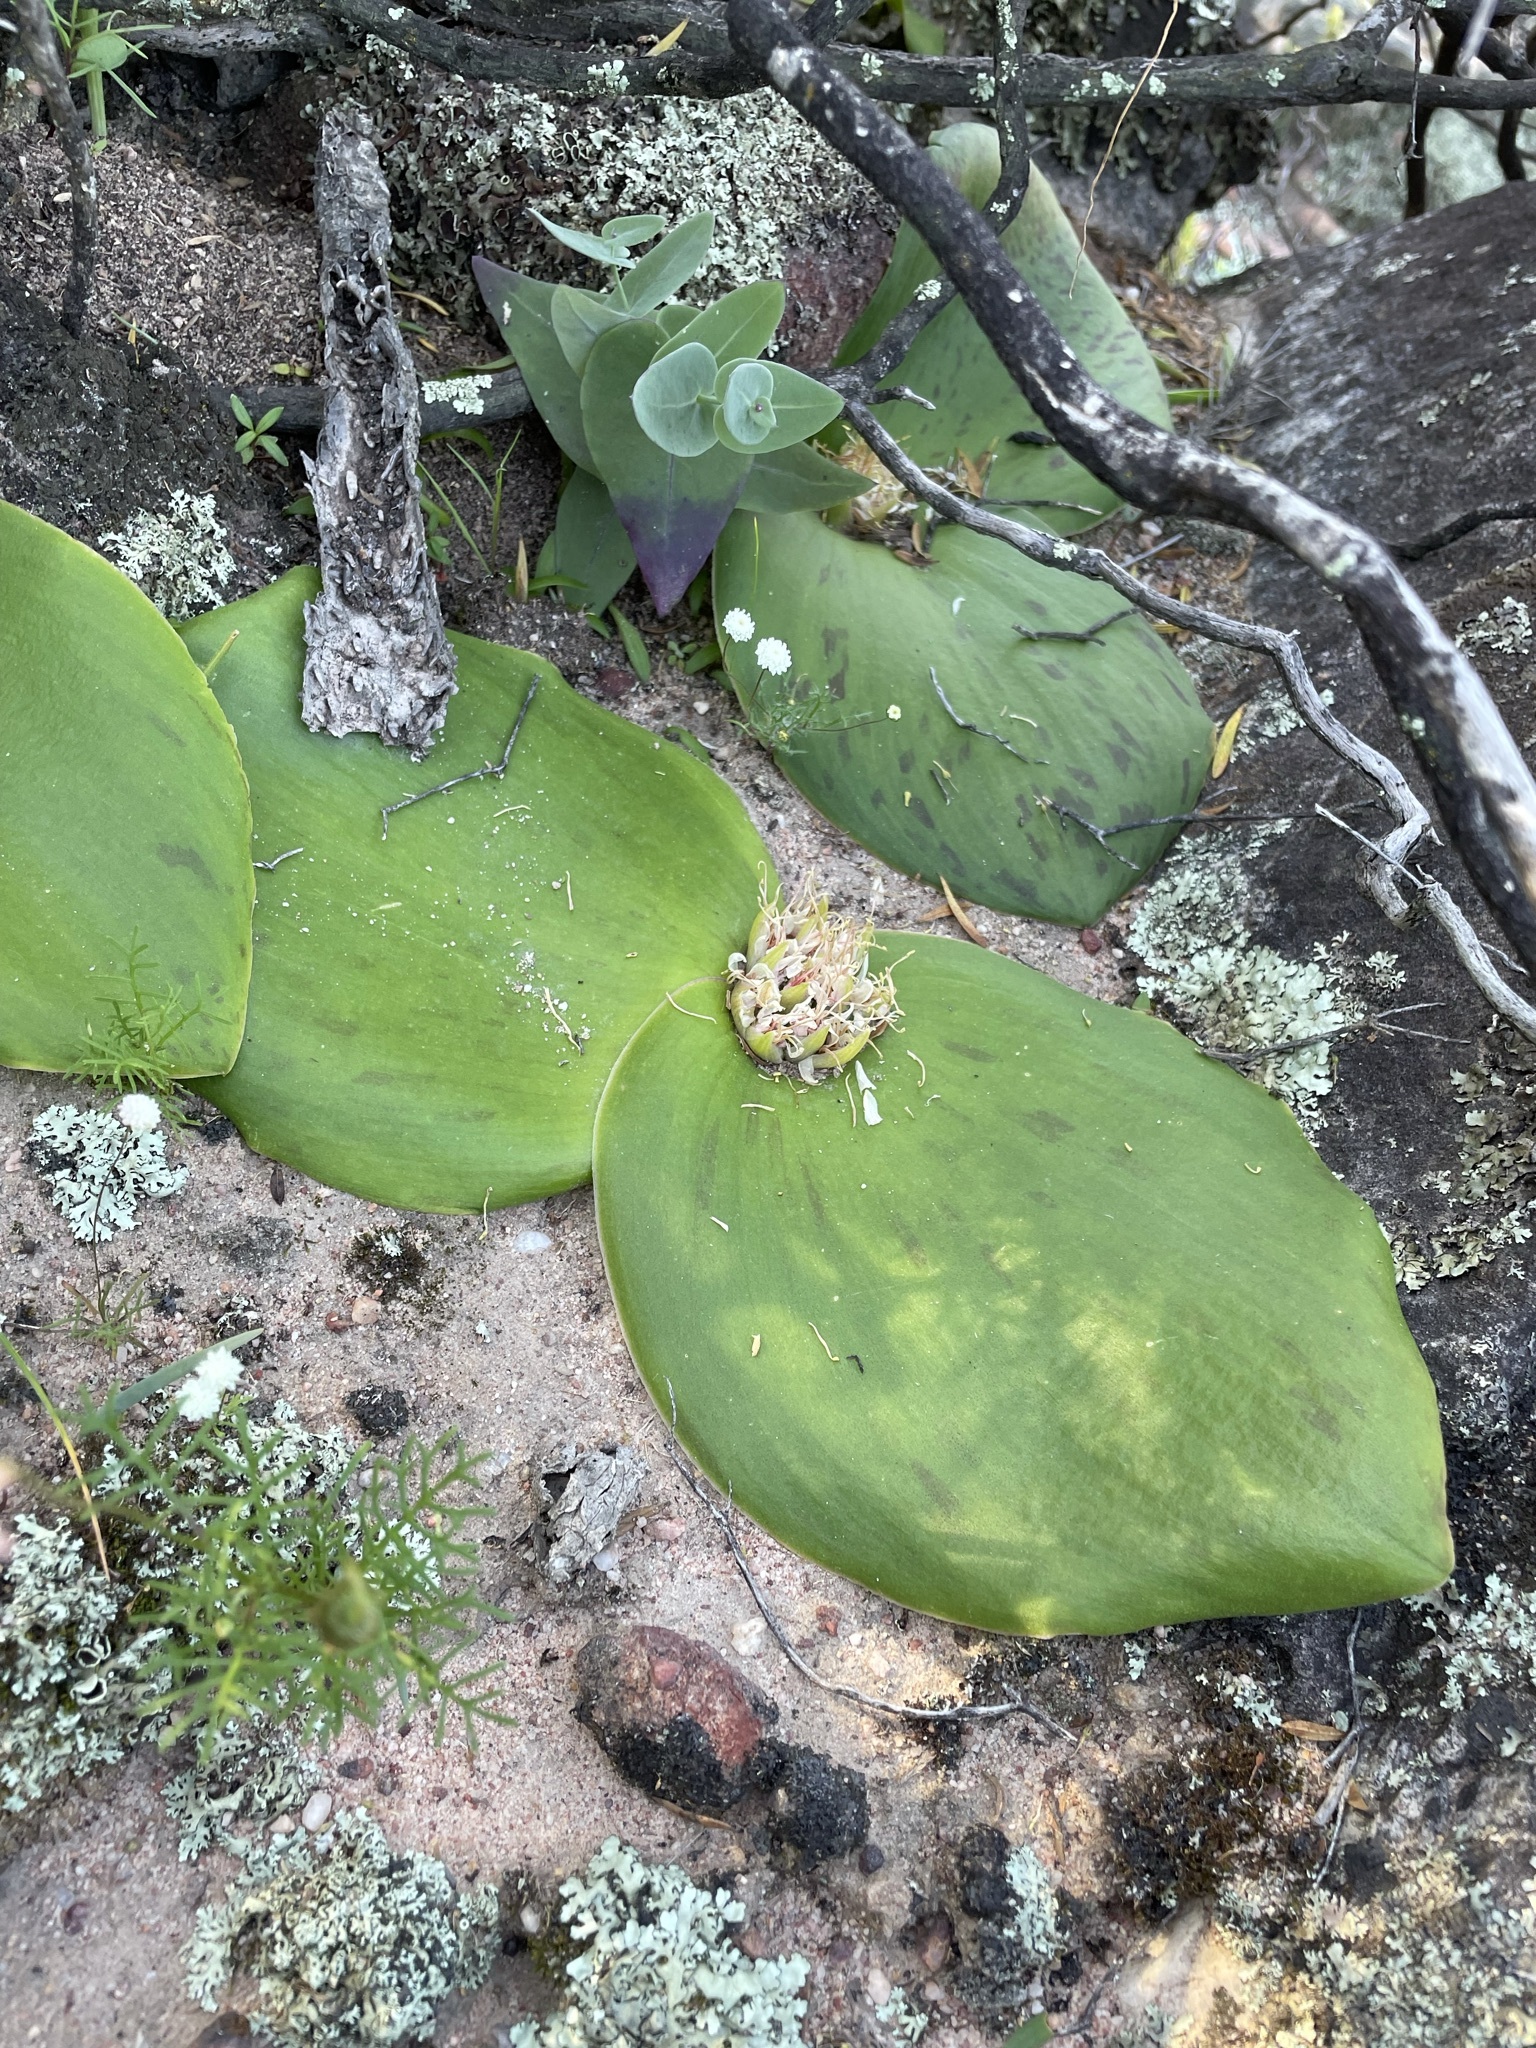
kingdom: Plantae
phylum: Tracheophyta
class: Liliopsida
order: Asparagales
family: Asparagaceae
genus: Massonia
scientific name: Massonia depressa
